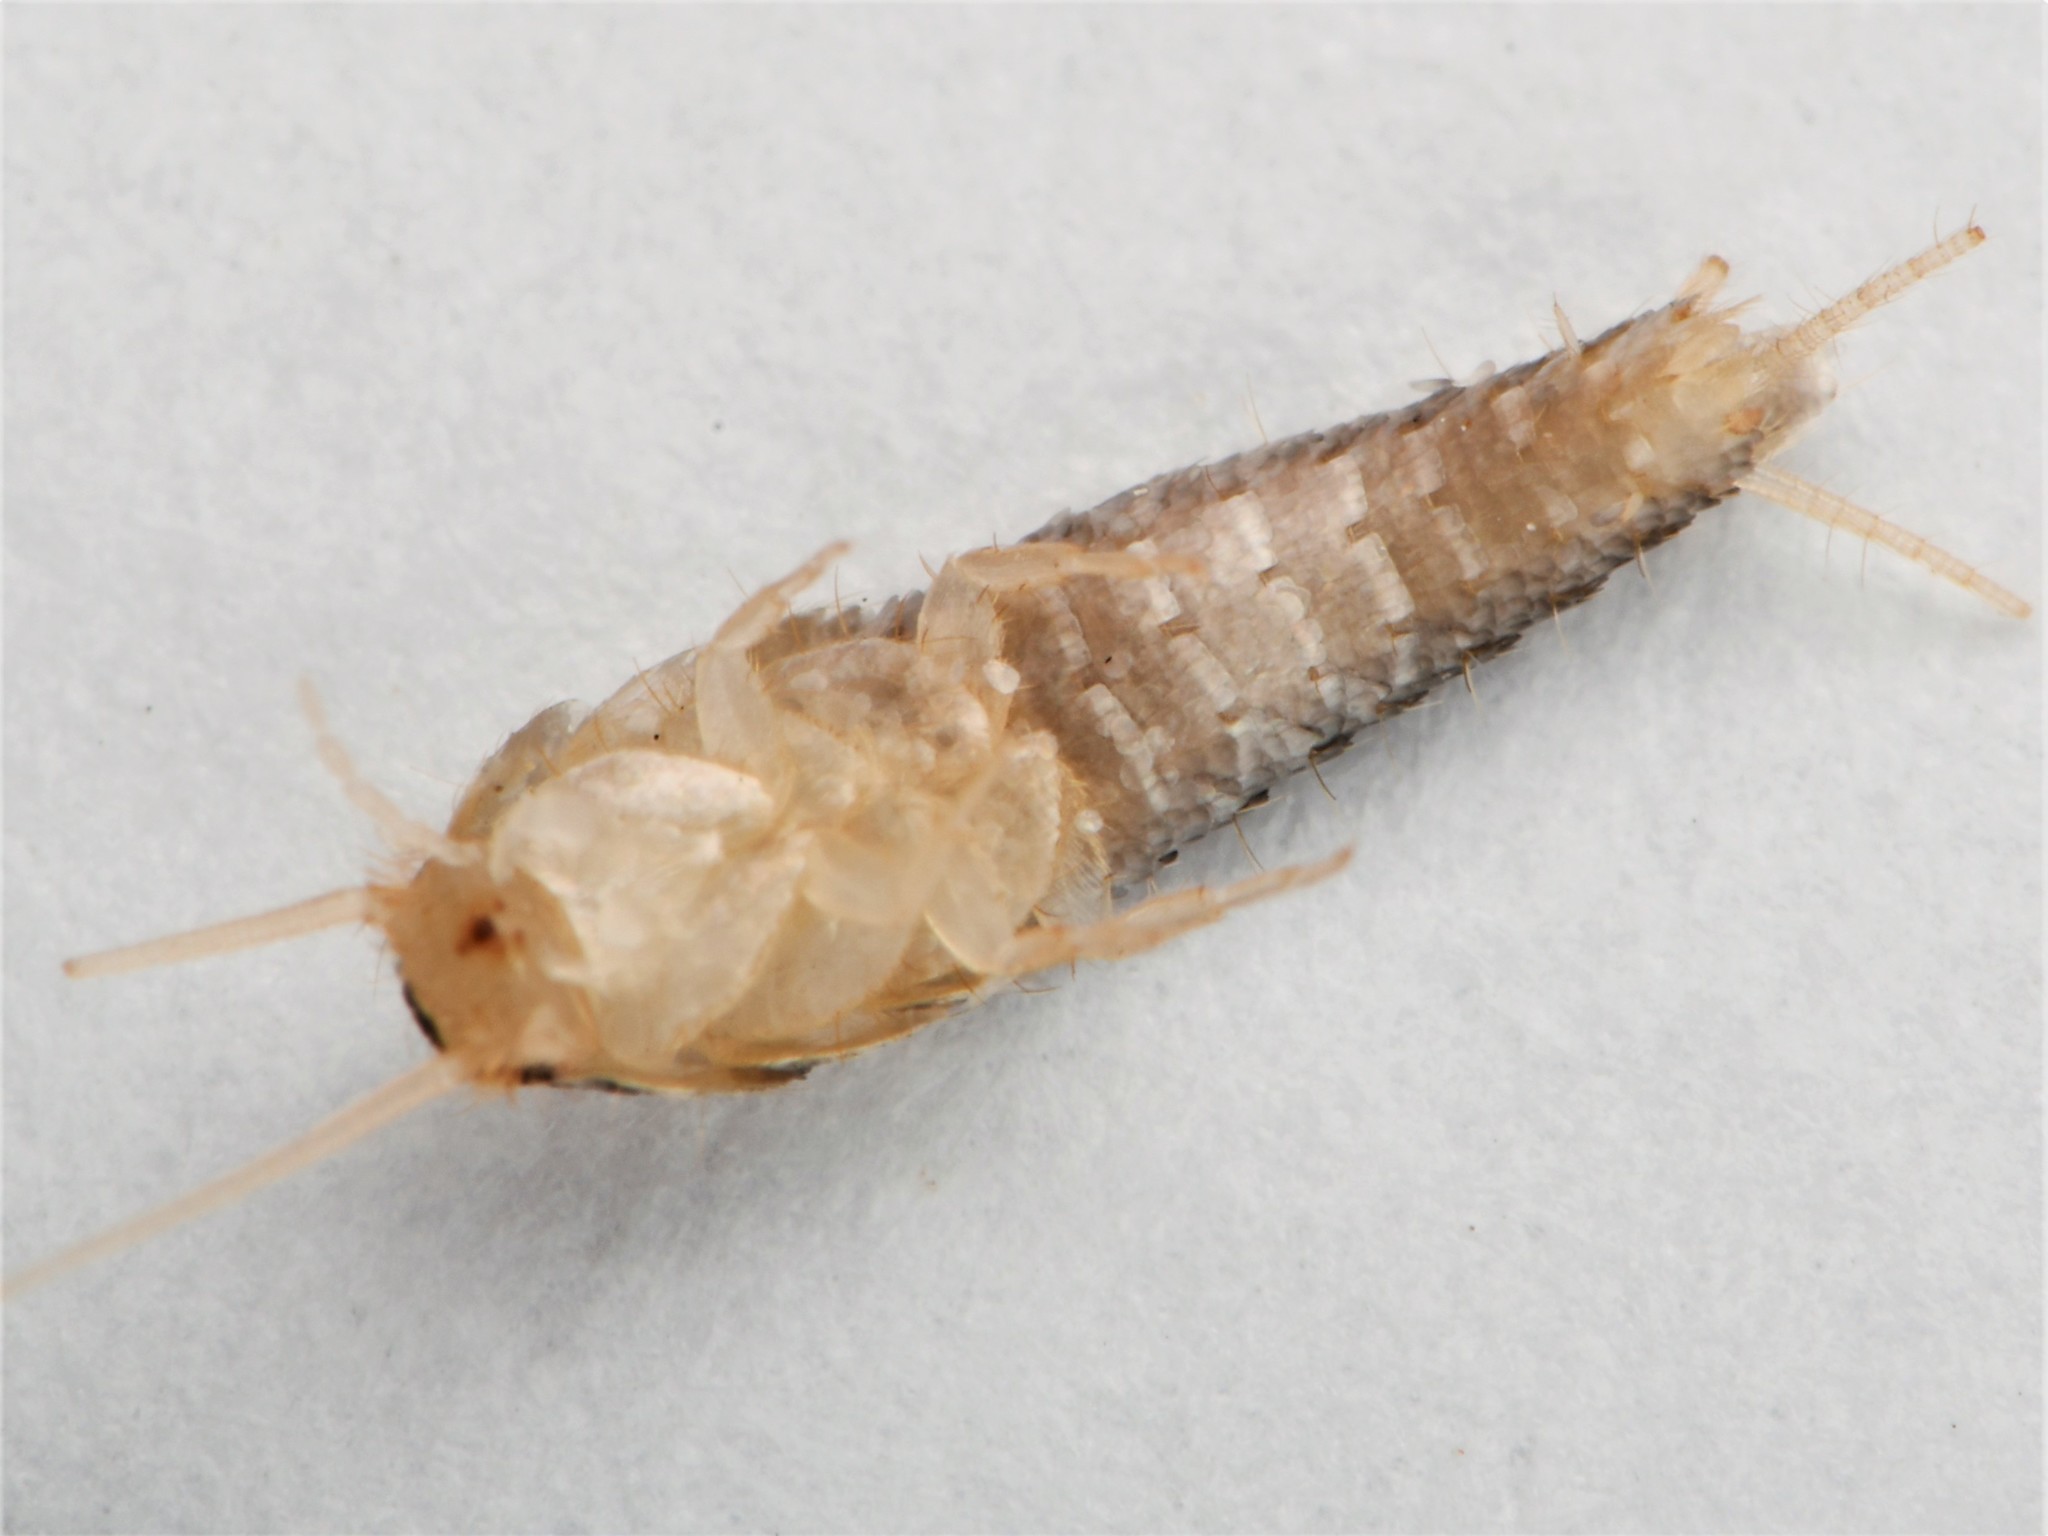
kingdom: Animalia
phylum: Arthropoda
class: Insecta
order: Zygentoma
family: Lepismatidae
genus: Lepisma
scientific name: Lepisma saccharinum
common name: Silverfish
